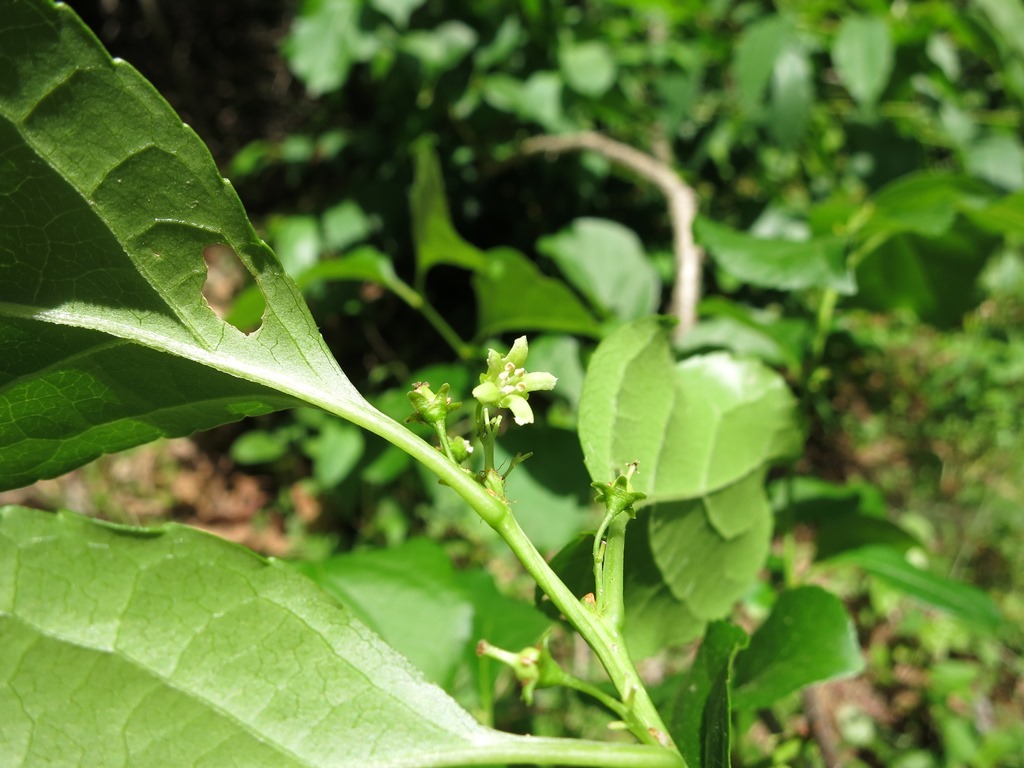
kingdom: Plantae
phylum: Tracheophyta
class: Magnoliopsida
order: Celastrales
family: Celastraceae
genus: Celastrus
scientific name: Celastrus orbiculatus
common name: Oriental bittersweet
